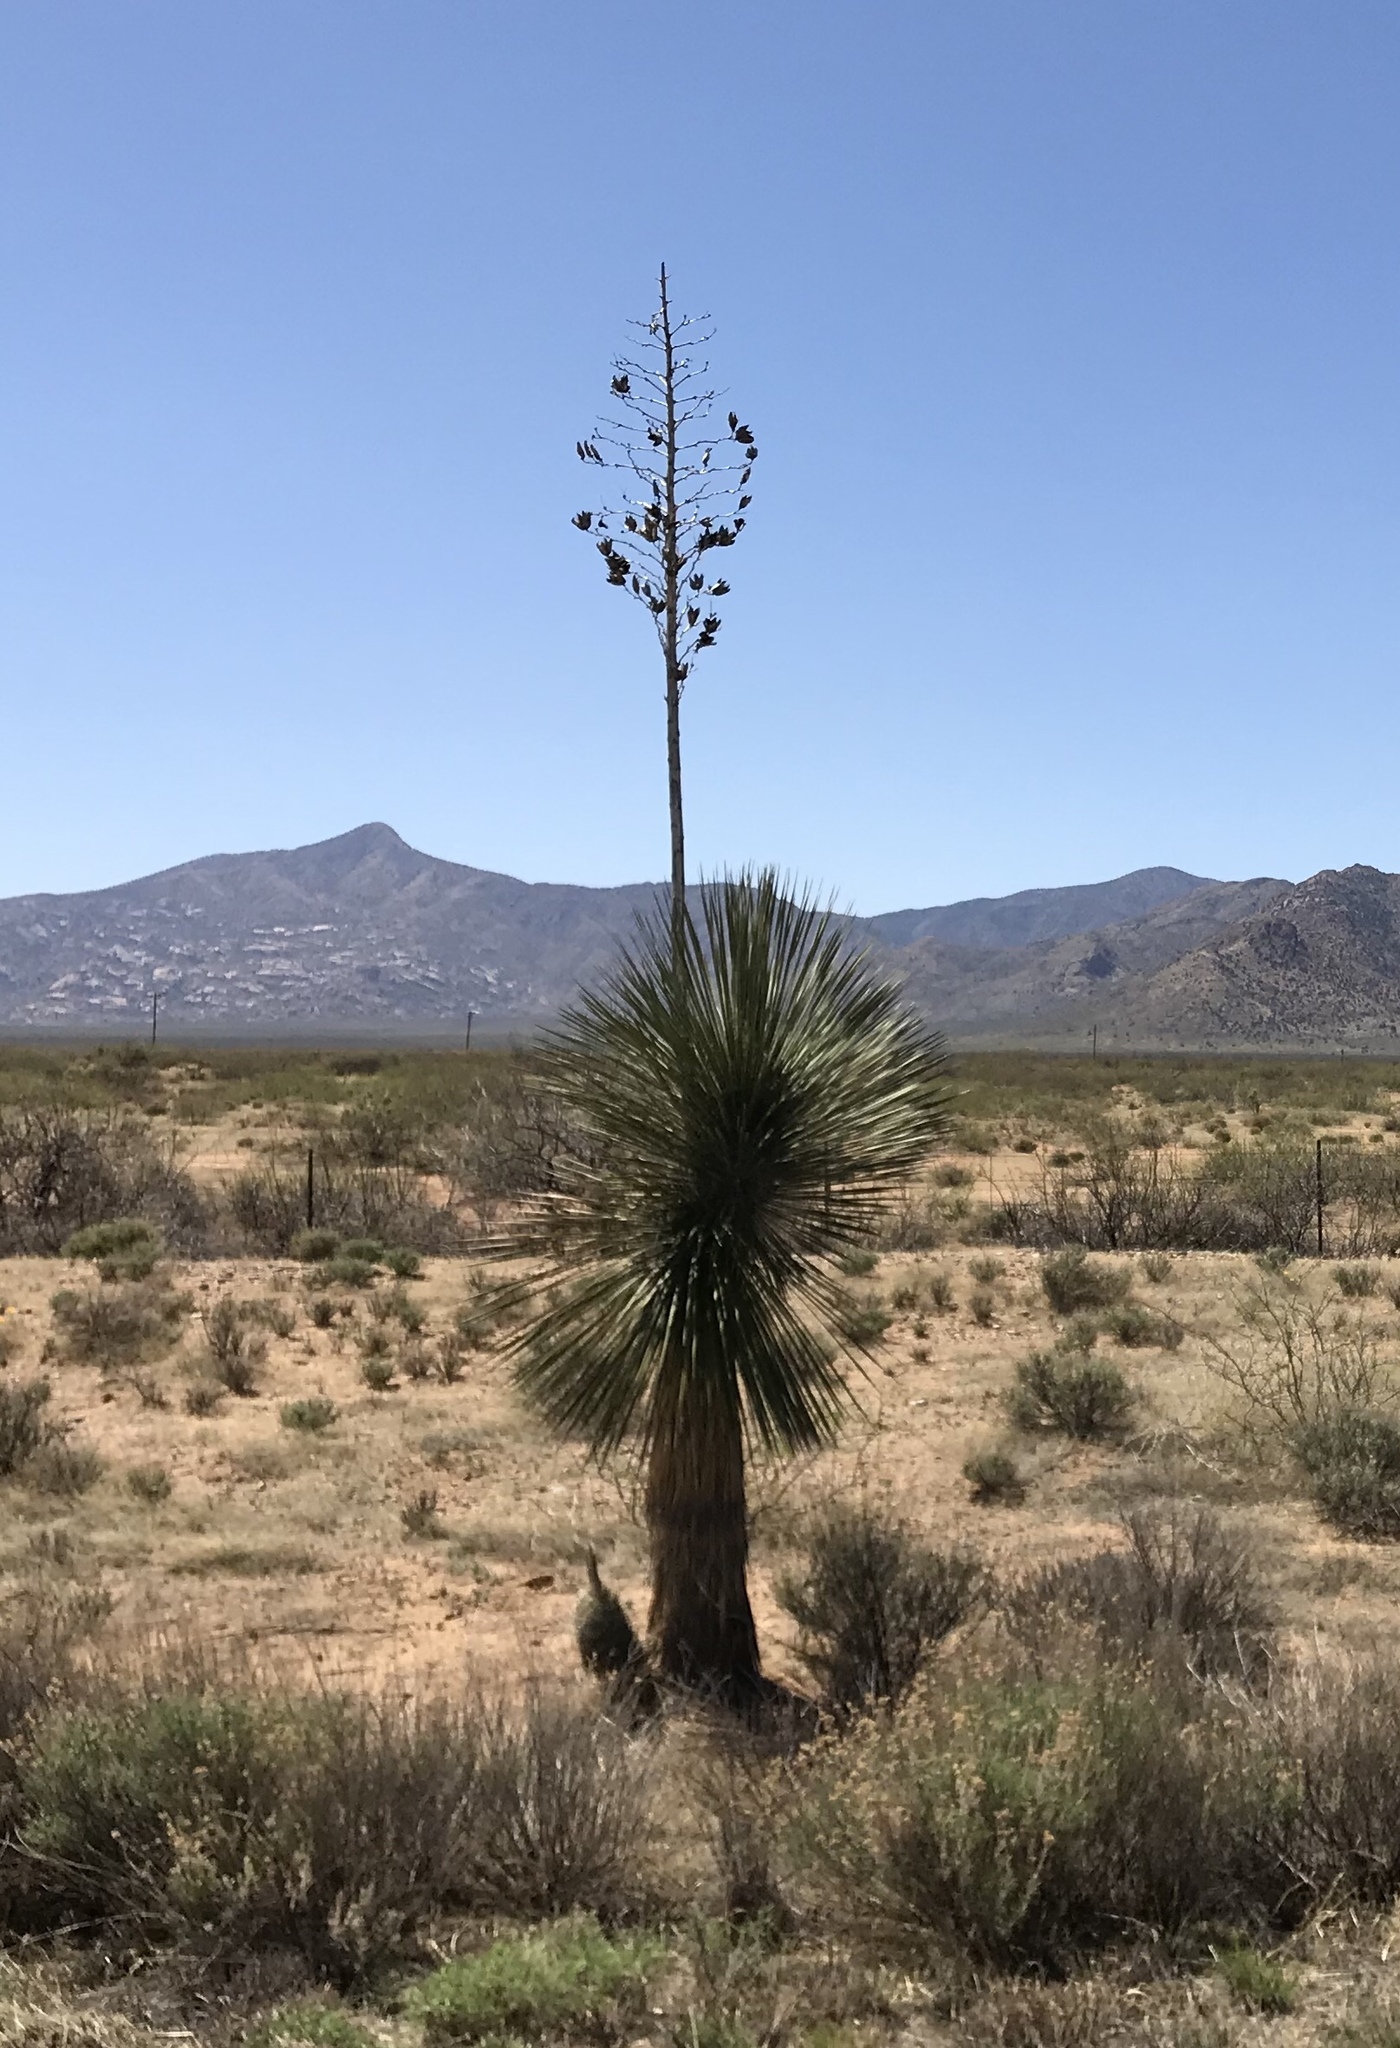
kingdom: Plantae
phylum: Tracheophyta
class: Liliopsida
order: Asparagales
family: Asparagaceae
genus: Yucca
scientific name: Yucca elata
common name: Palmella
